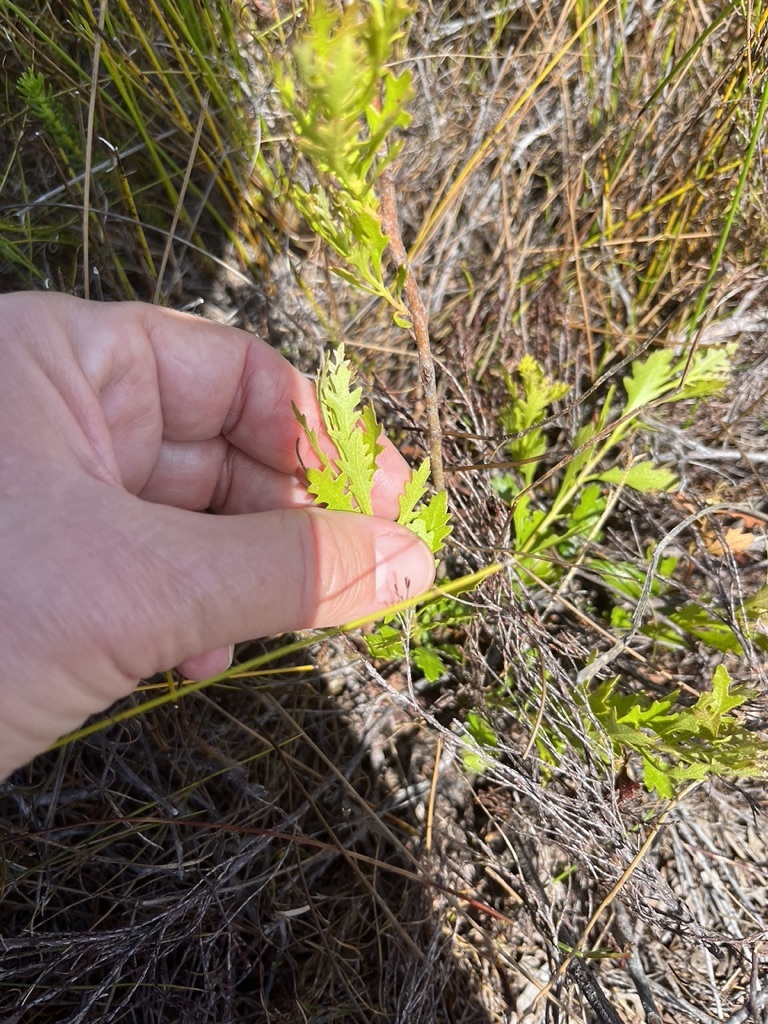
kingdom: Plantae
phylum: Tracheophyta
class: Magnoliopsida
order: Fagales
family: Myricaceae
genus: Morella
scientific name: Morella quercifolia
